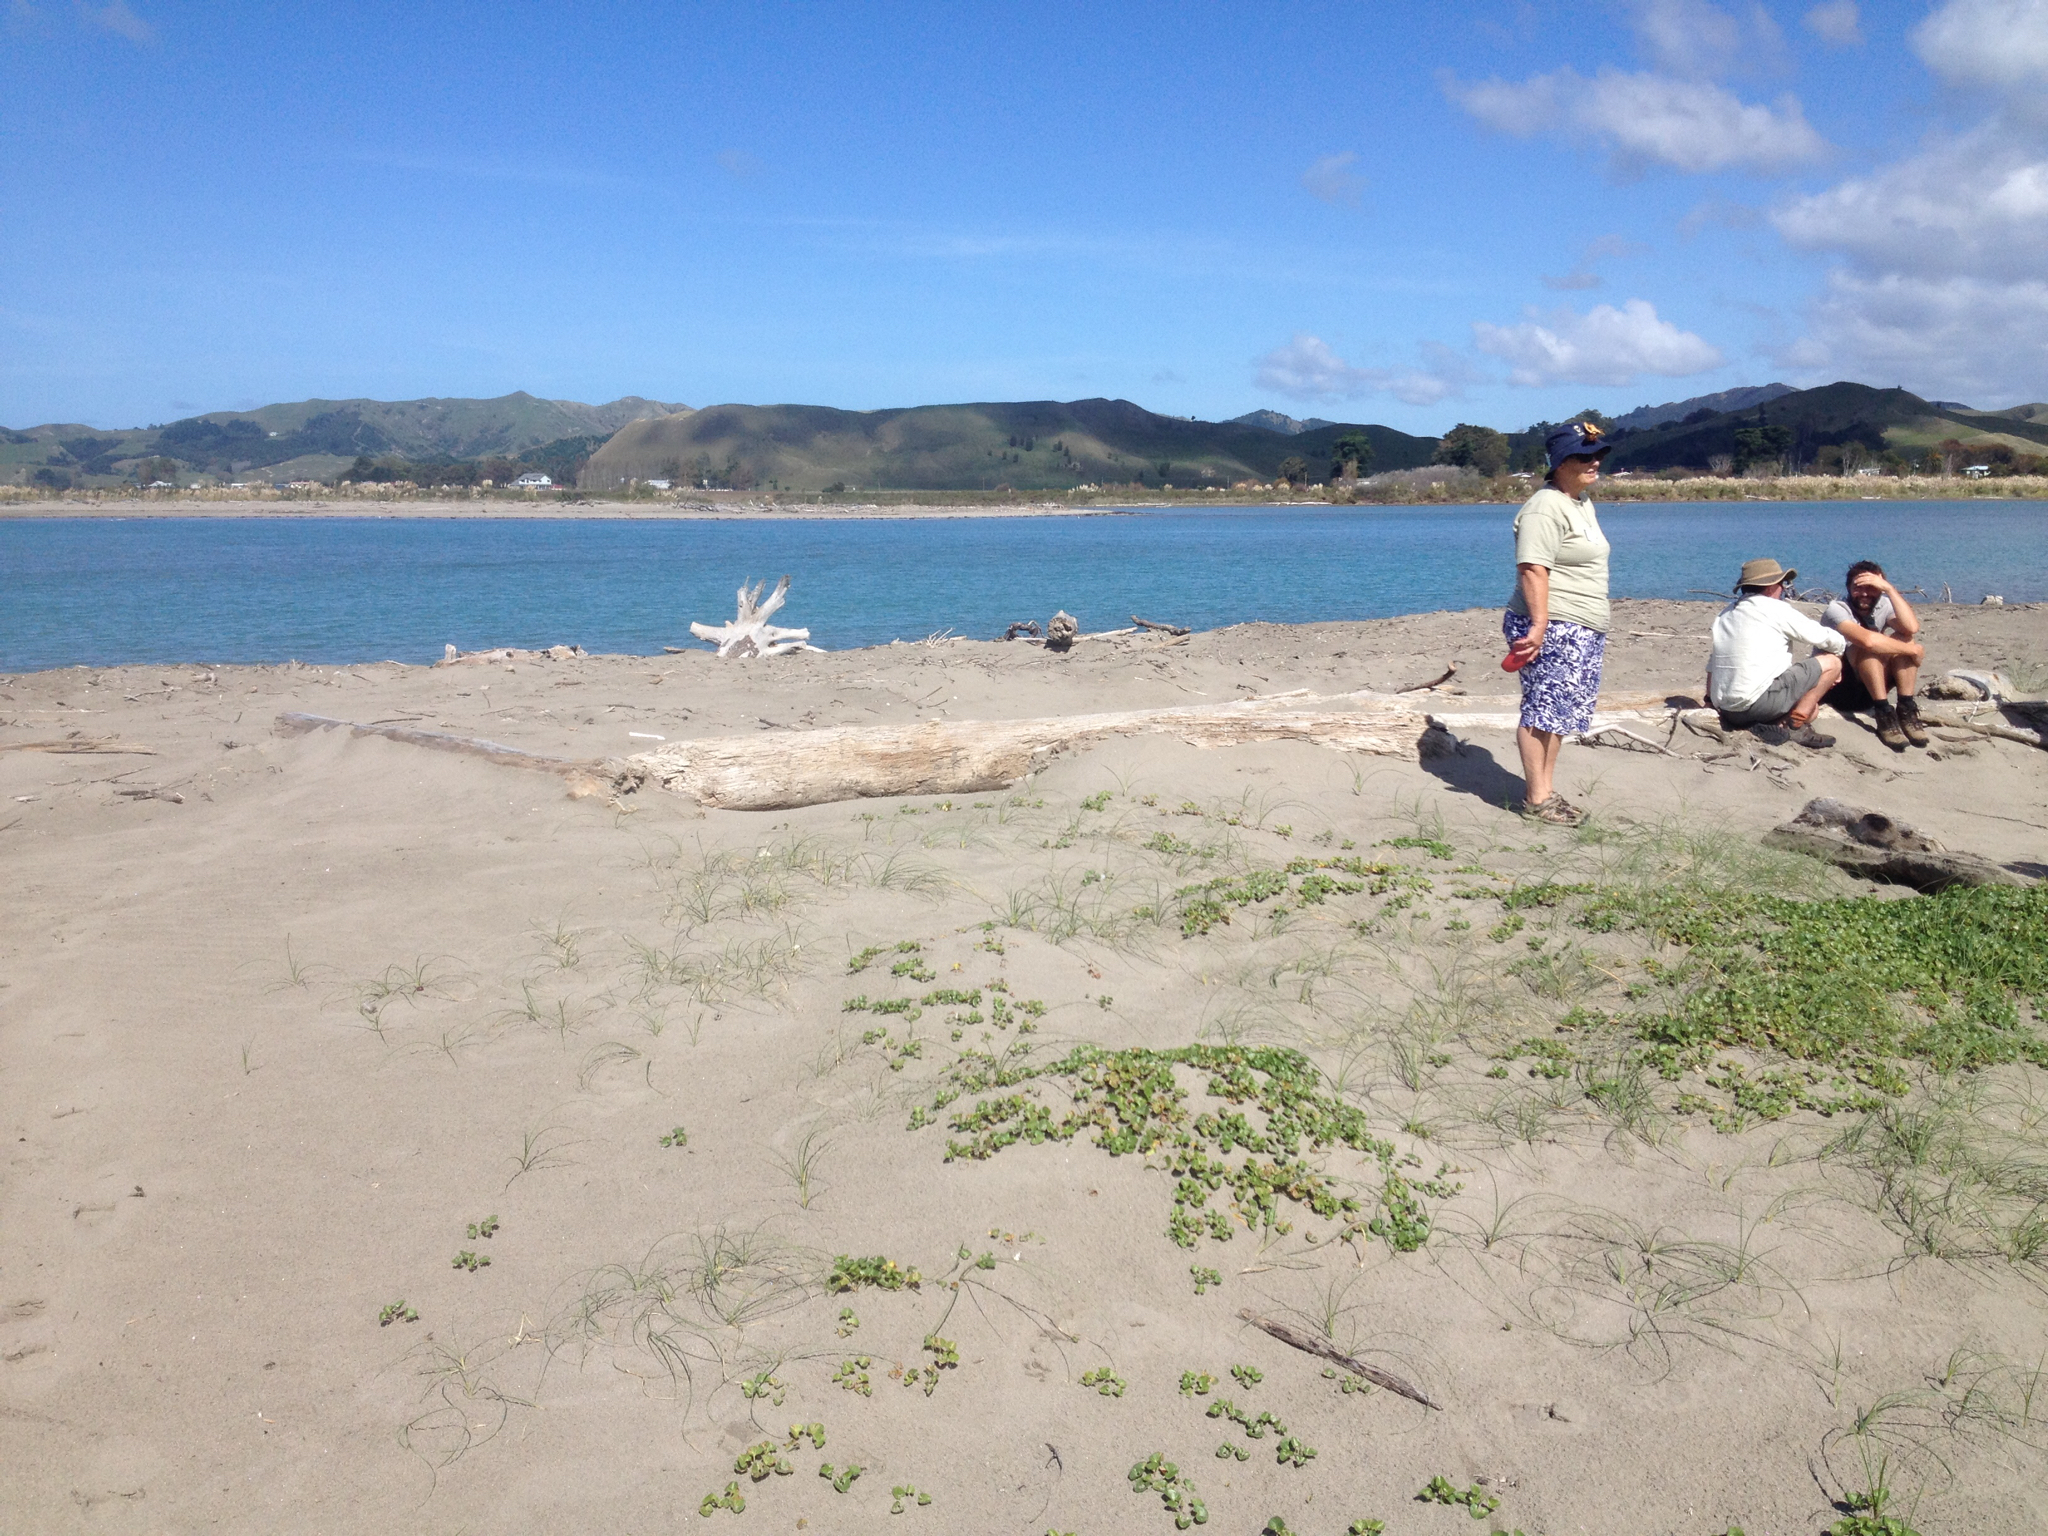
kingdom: Plantae
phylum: Tracheophyta
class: Magnoliopsida
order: Solanales
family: Convolvulaceae
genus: Calystegia
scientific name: Calystegia soldanella
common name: Sea bindweed
